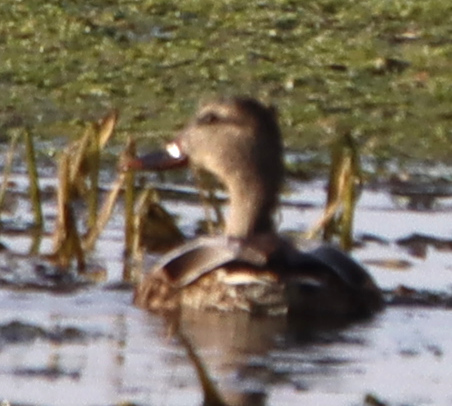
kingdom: Animalia
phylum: Chordata
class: Aves
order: Anseriformes
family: Anatidae
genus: Anas
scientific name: Anas platyrhynchos
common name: Mallard
